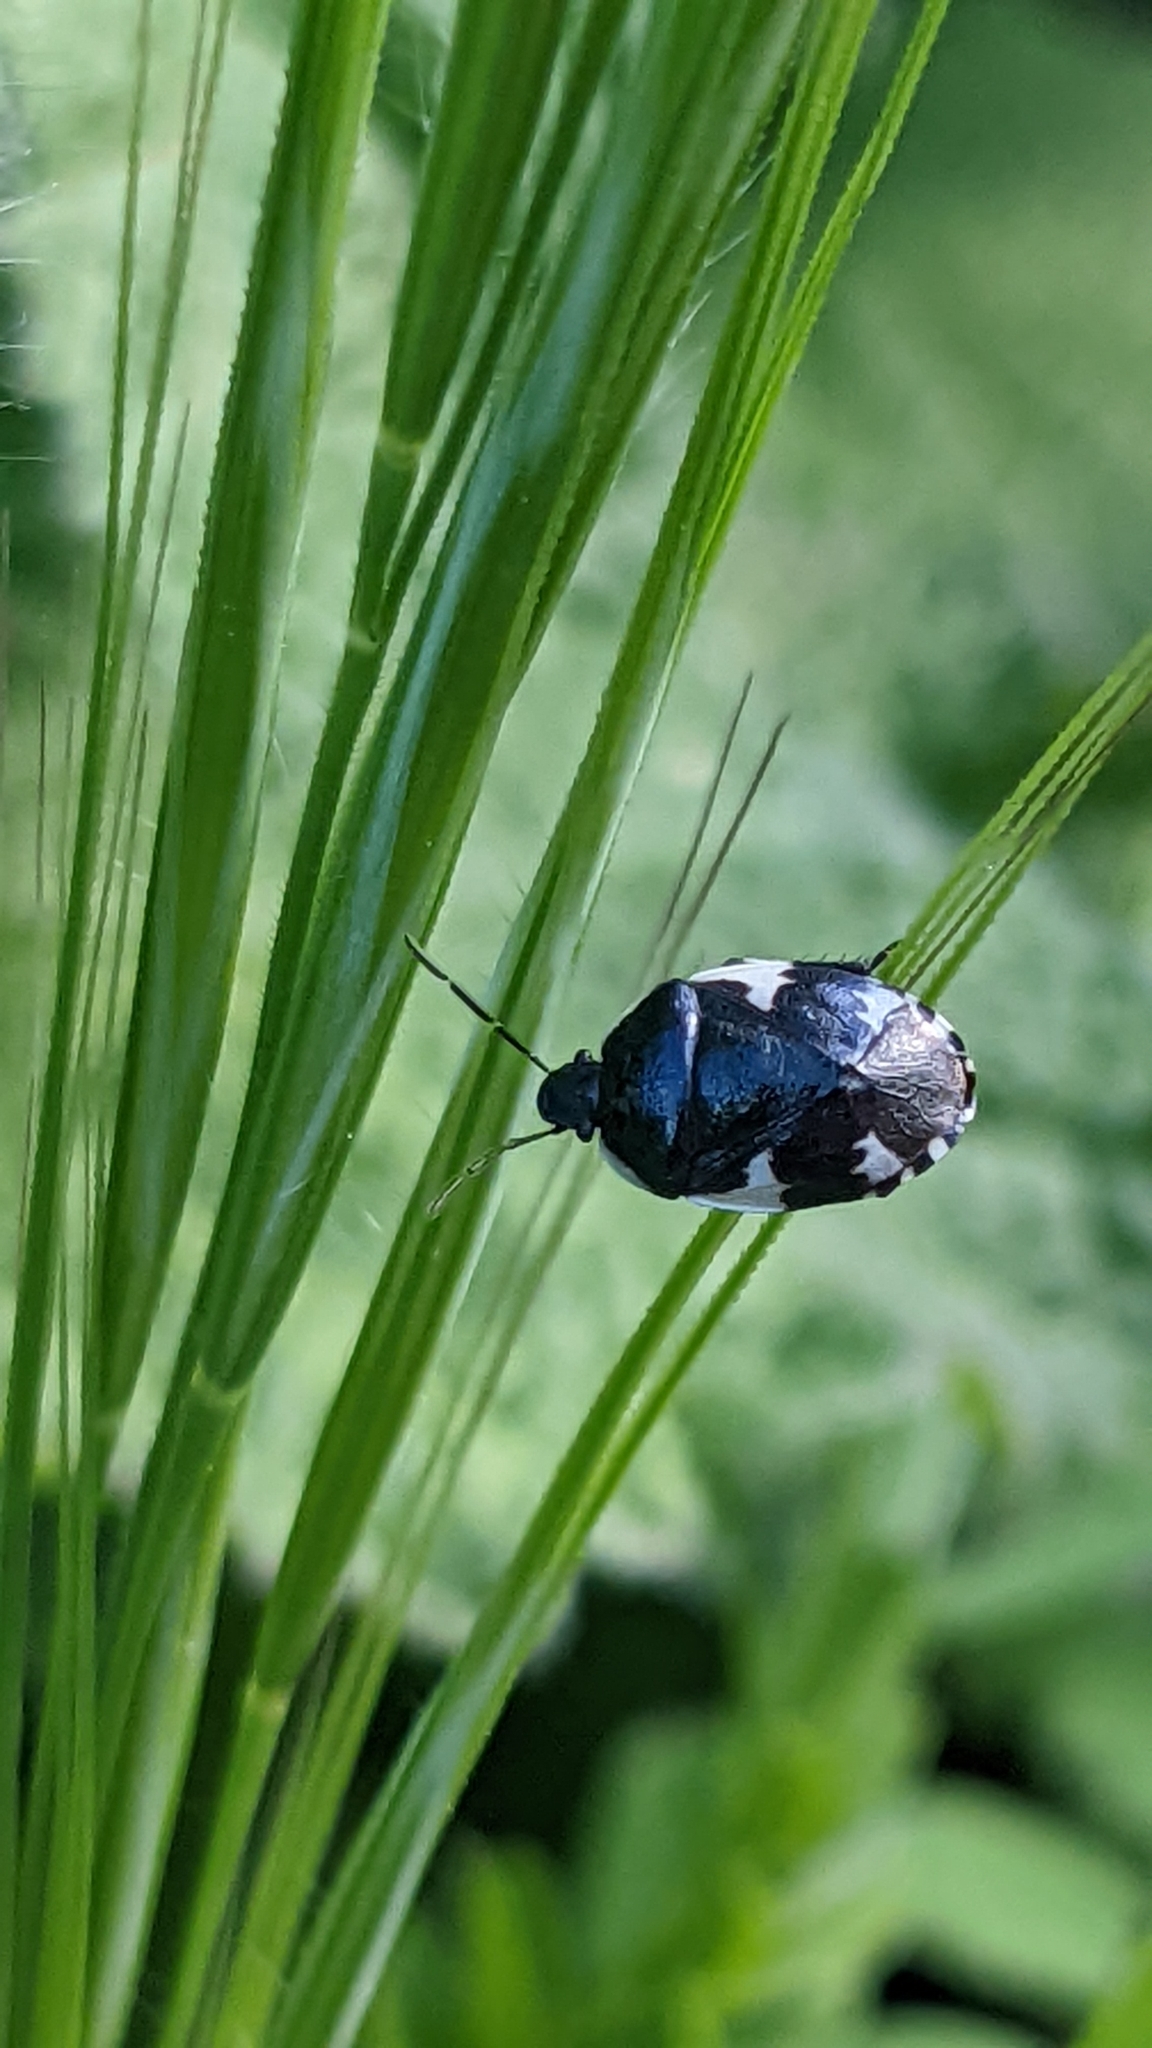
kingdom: Animalia
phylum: Arthropoda
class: Insecta
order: Hemiptera
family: Cydnidae
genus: Tritomegas
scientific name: Tritomegas sexmaculatus
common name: Rambur's pied shieldbug
